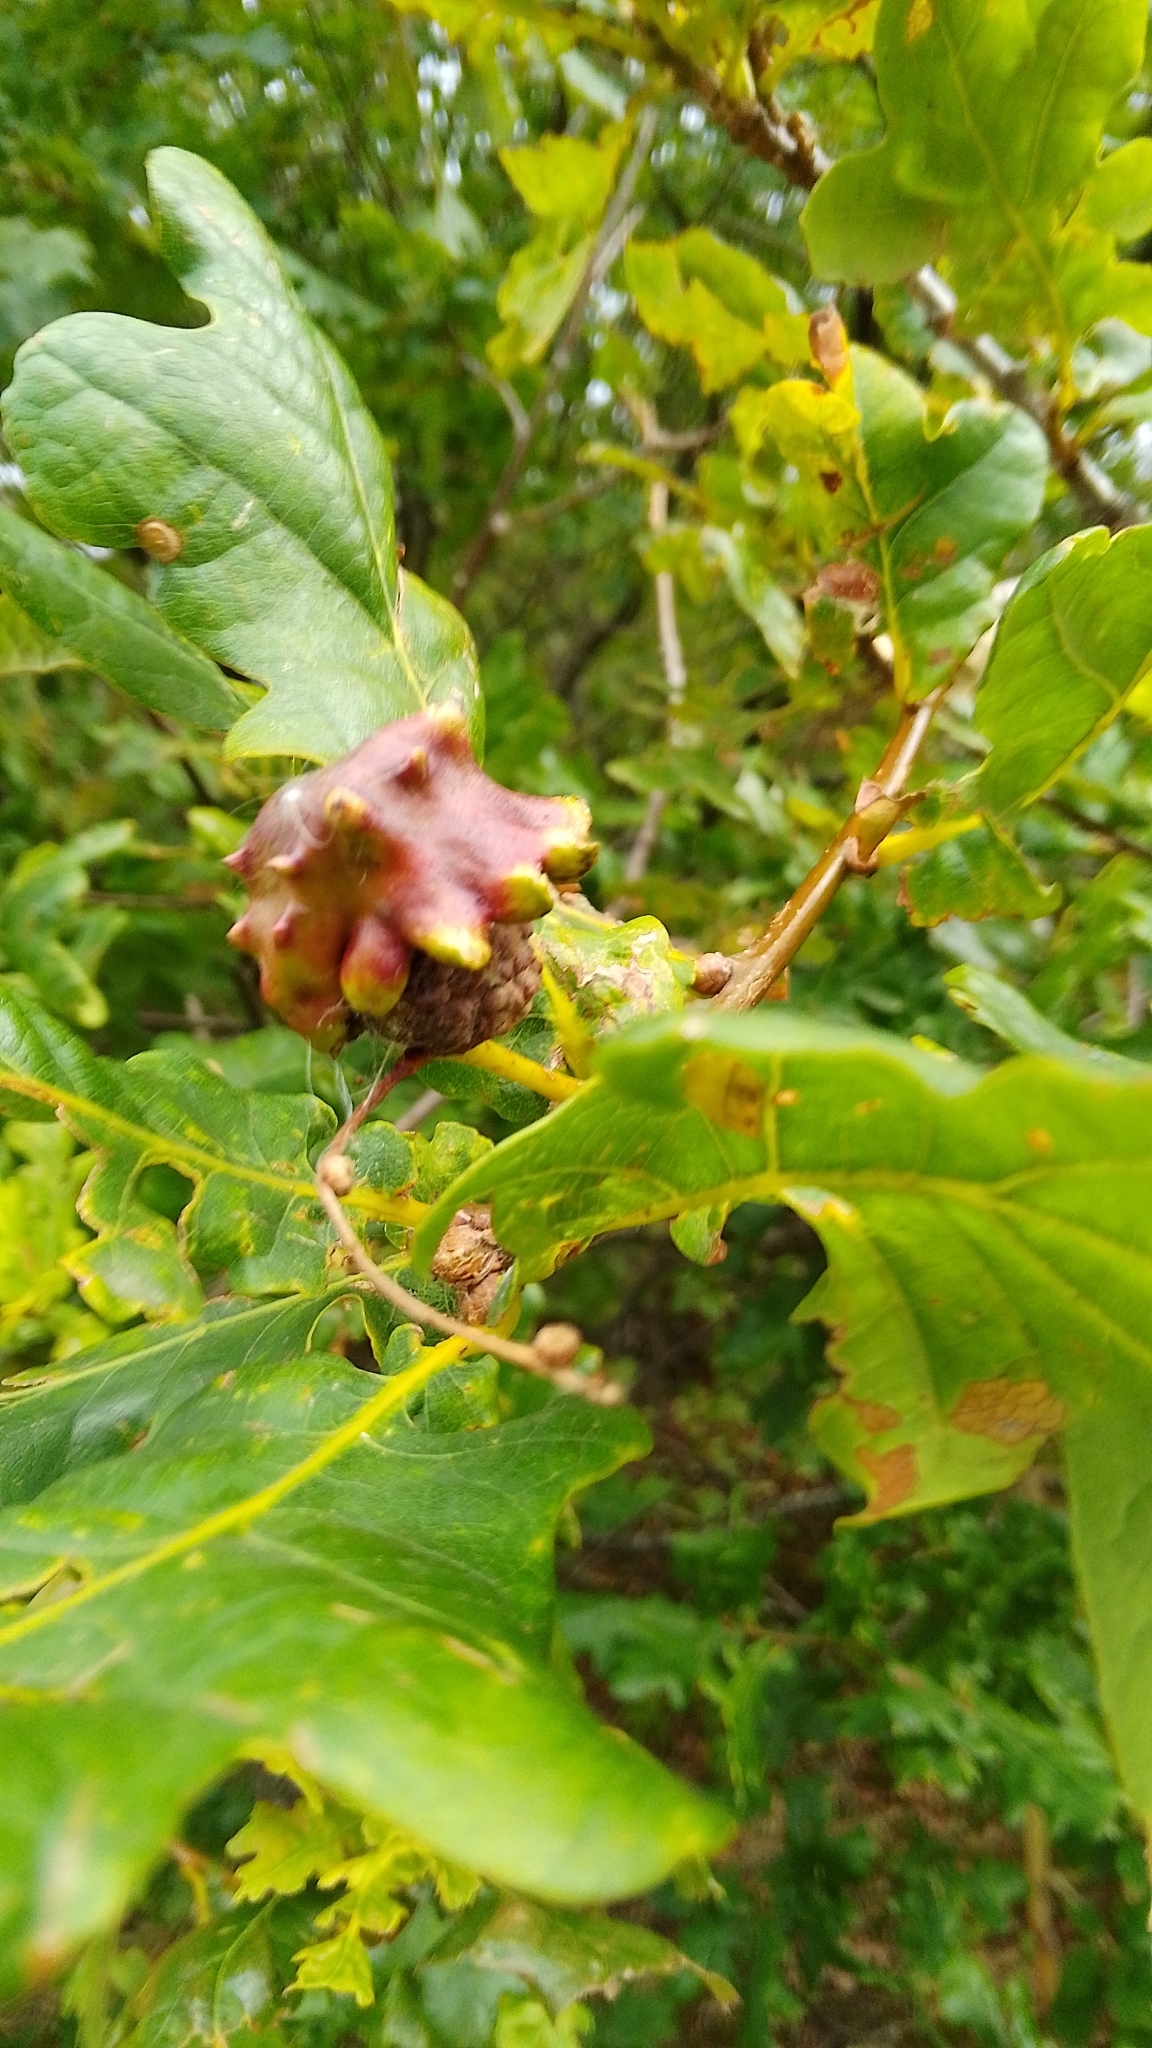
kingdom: Animalia
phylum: Arthropoda
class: Insecta
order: Hymenoptera
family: Cynipidae
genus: Andricus
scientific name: Andricus quercuscalicis
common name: Knopper gall
